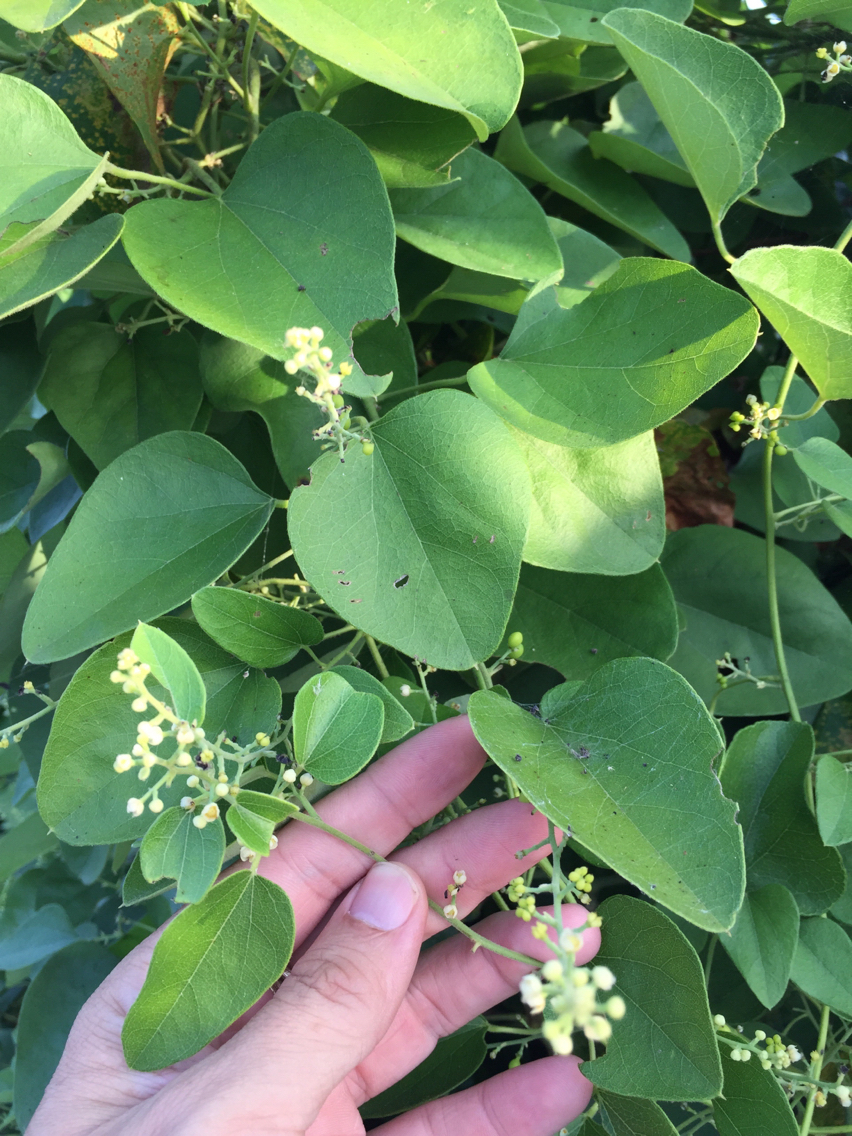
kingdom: Plantae
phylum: Tracheophyta
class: Magnoliopsida
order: Ranunculales
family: Menispermaceae
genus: Cocculus
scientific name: Cocculus carolinus
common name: Carolina moonseed
